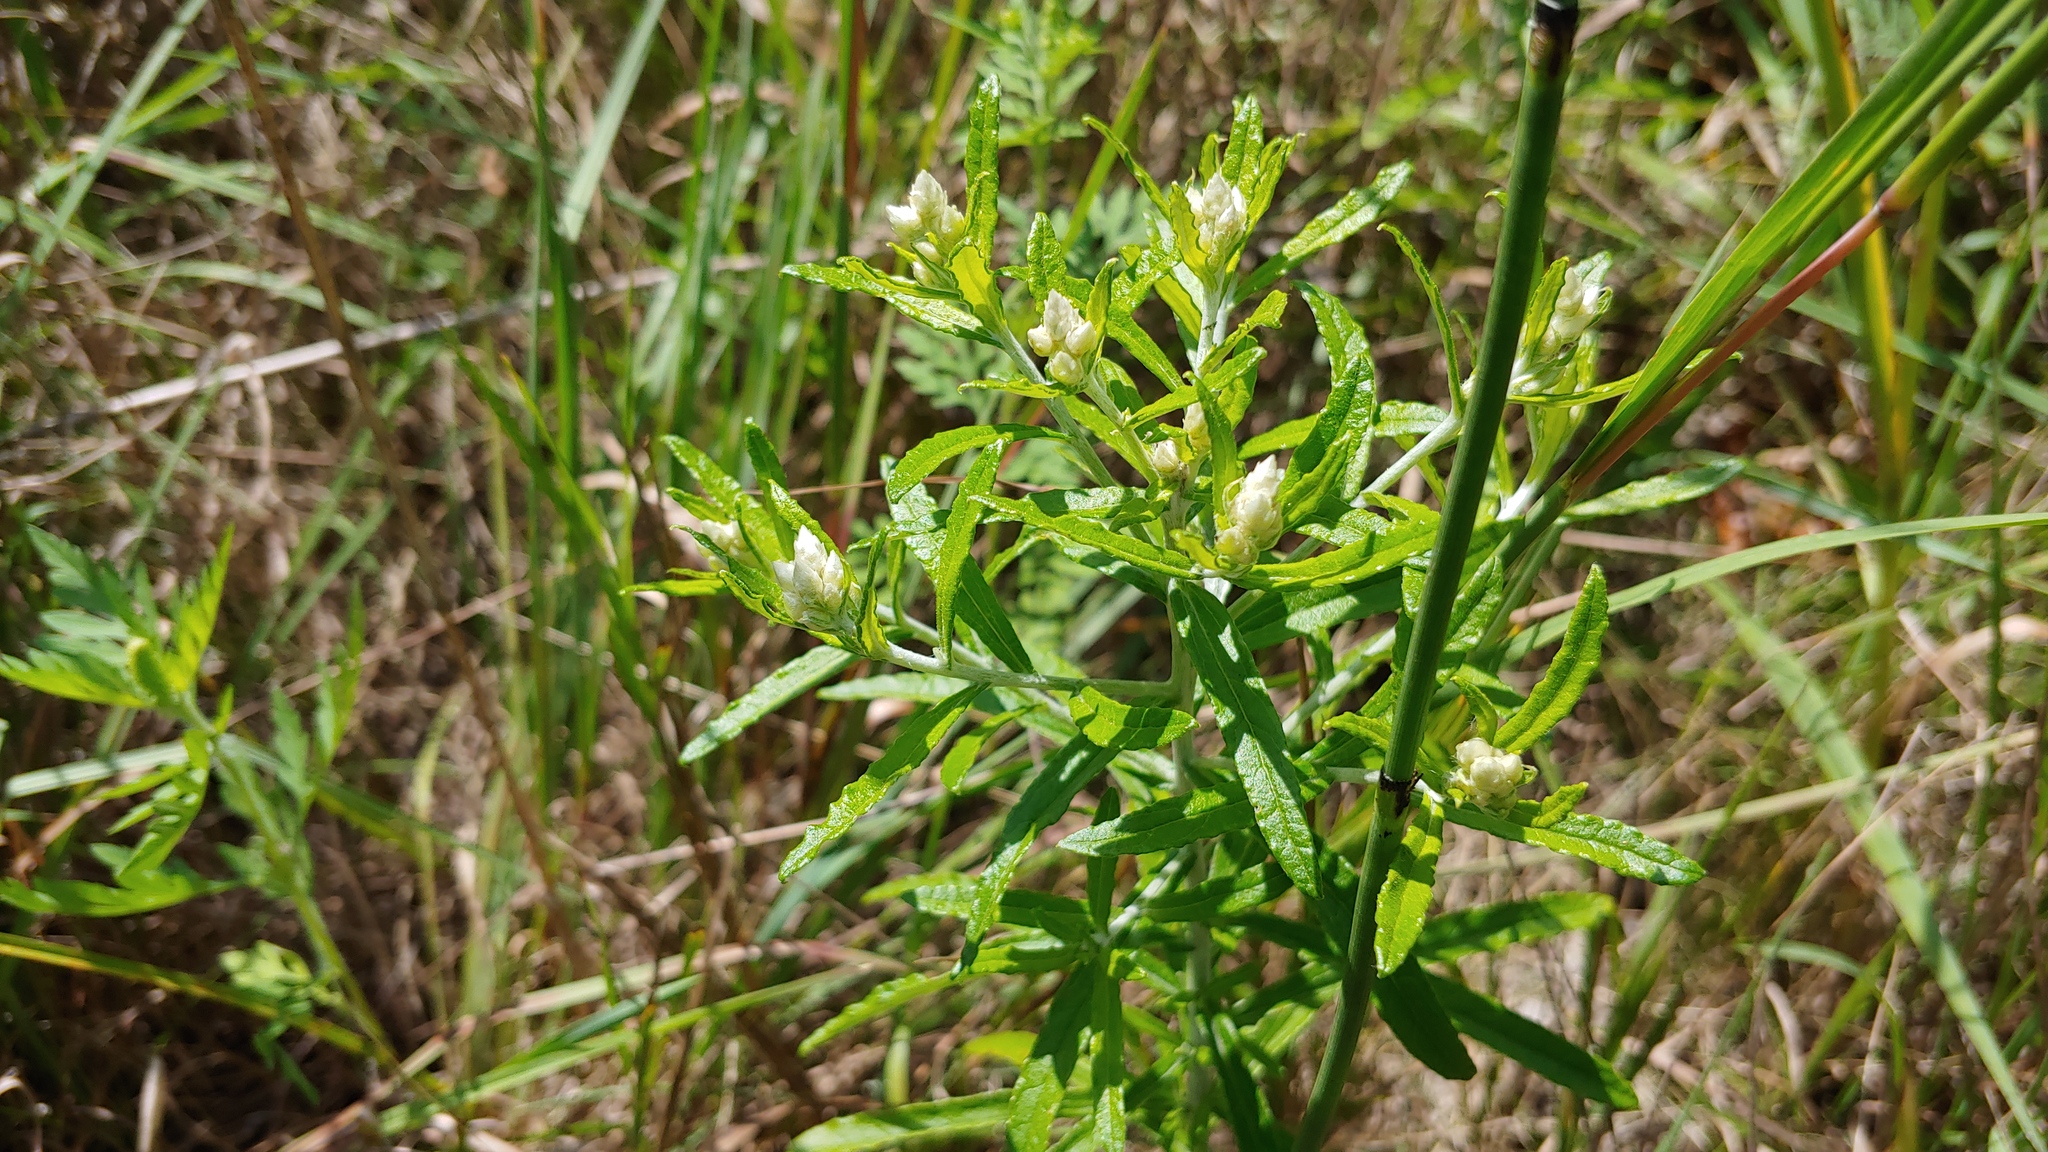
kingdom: Plantae
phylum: Tracheophyta
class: Magnoliopsida
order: Asterales
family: Asteraceae
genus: Pseudognaphalium
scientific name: Pseudognaphalium obtusifolium
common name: Eastern rabbit-tobacco
